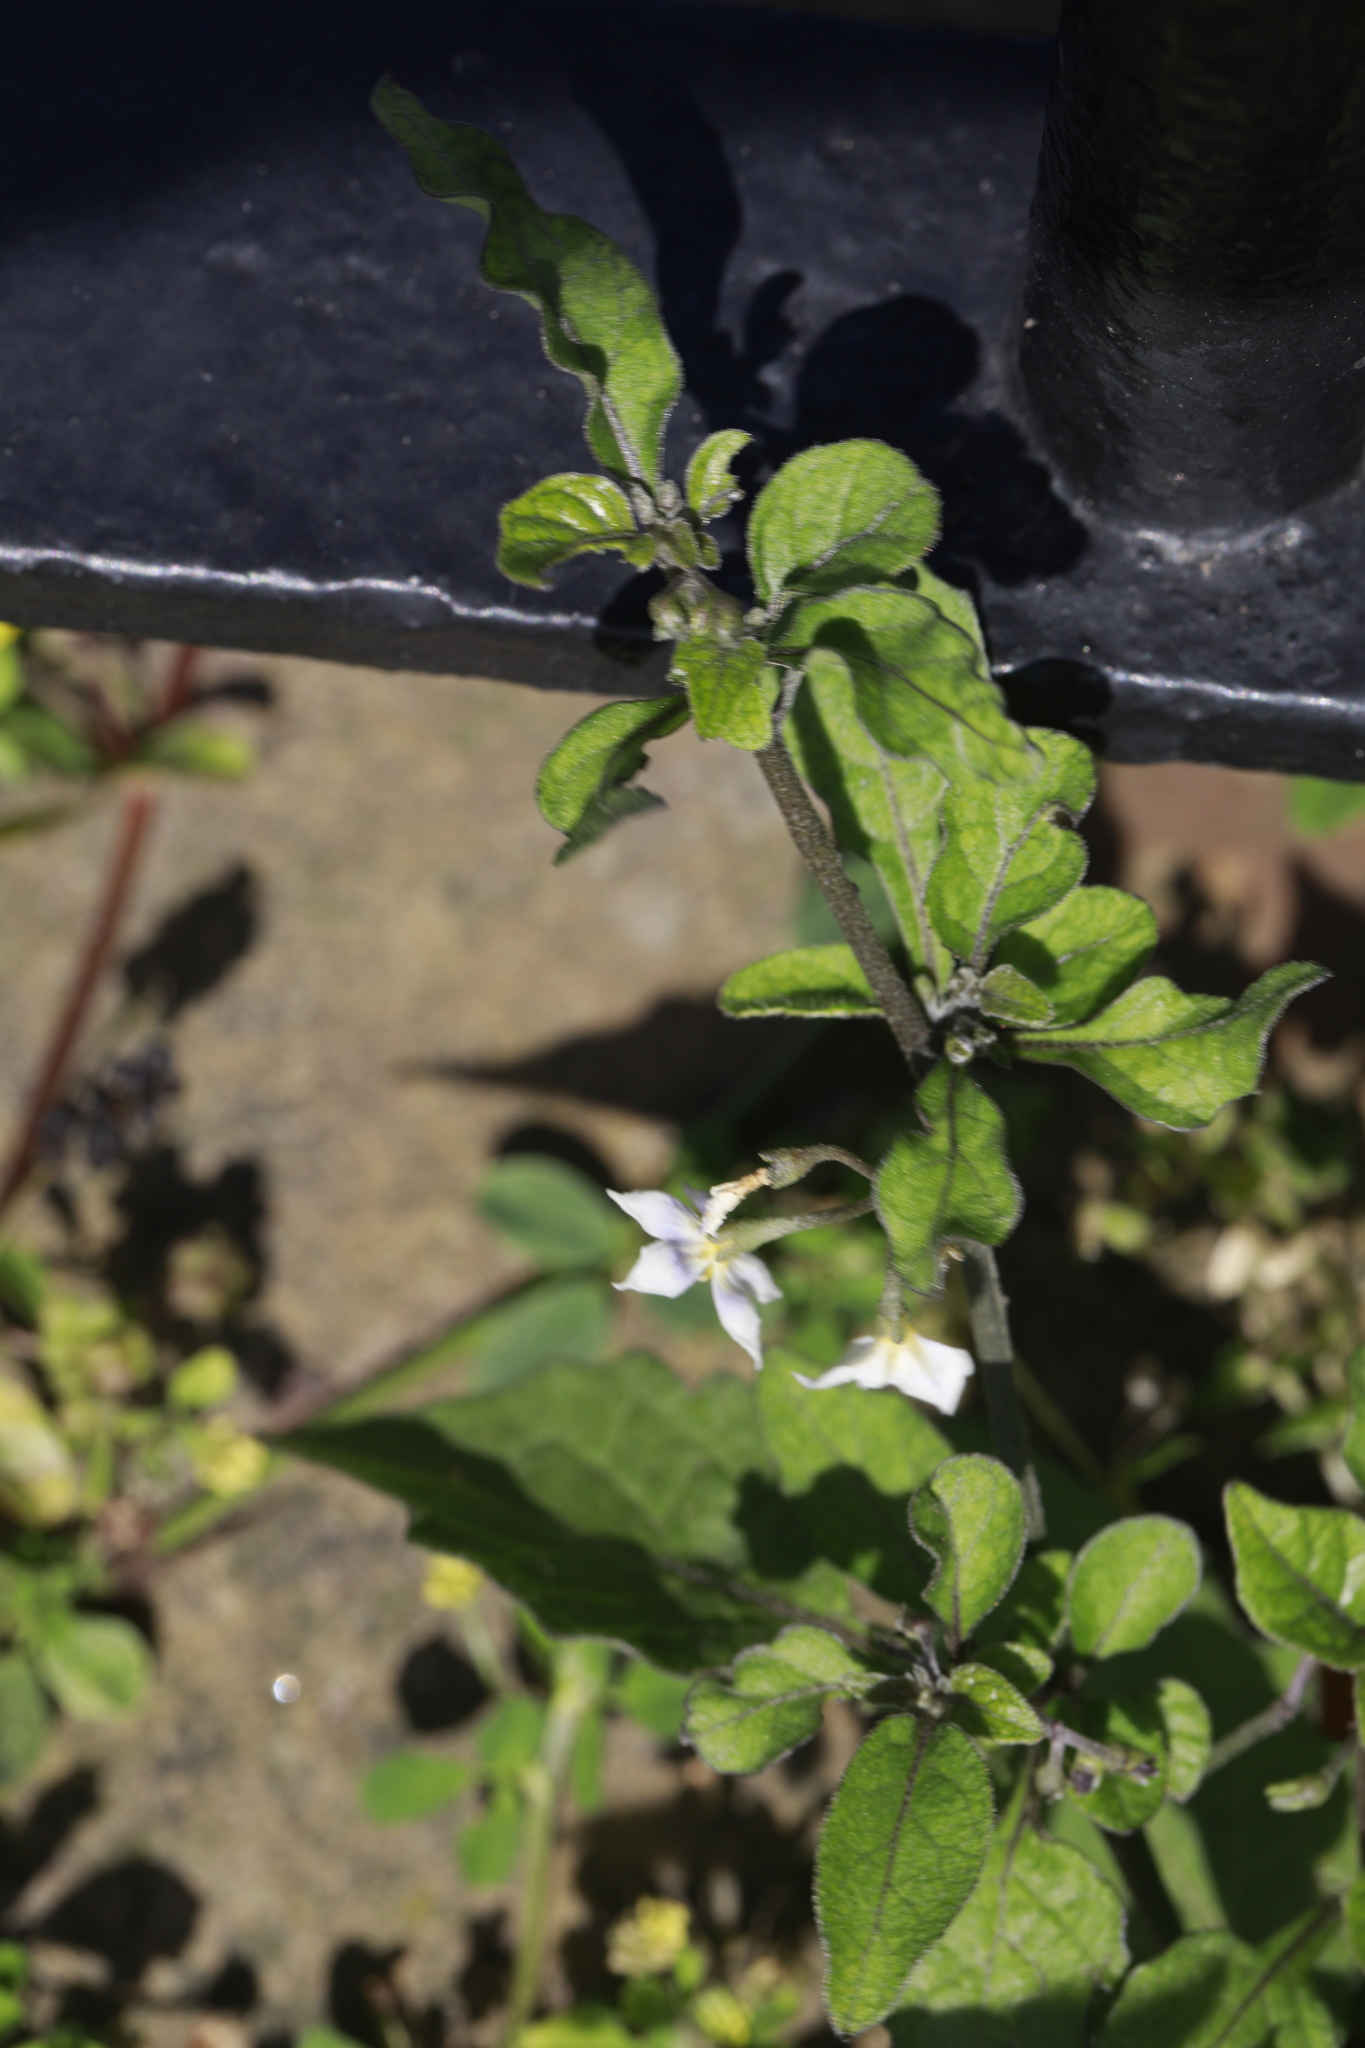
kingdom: Plantae
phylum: Tracheophyta
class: Magnoliopsida
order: Solanales
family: Solanaceae
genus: Solanum
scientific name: Solanum nigrum
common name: Black nightshade
